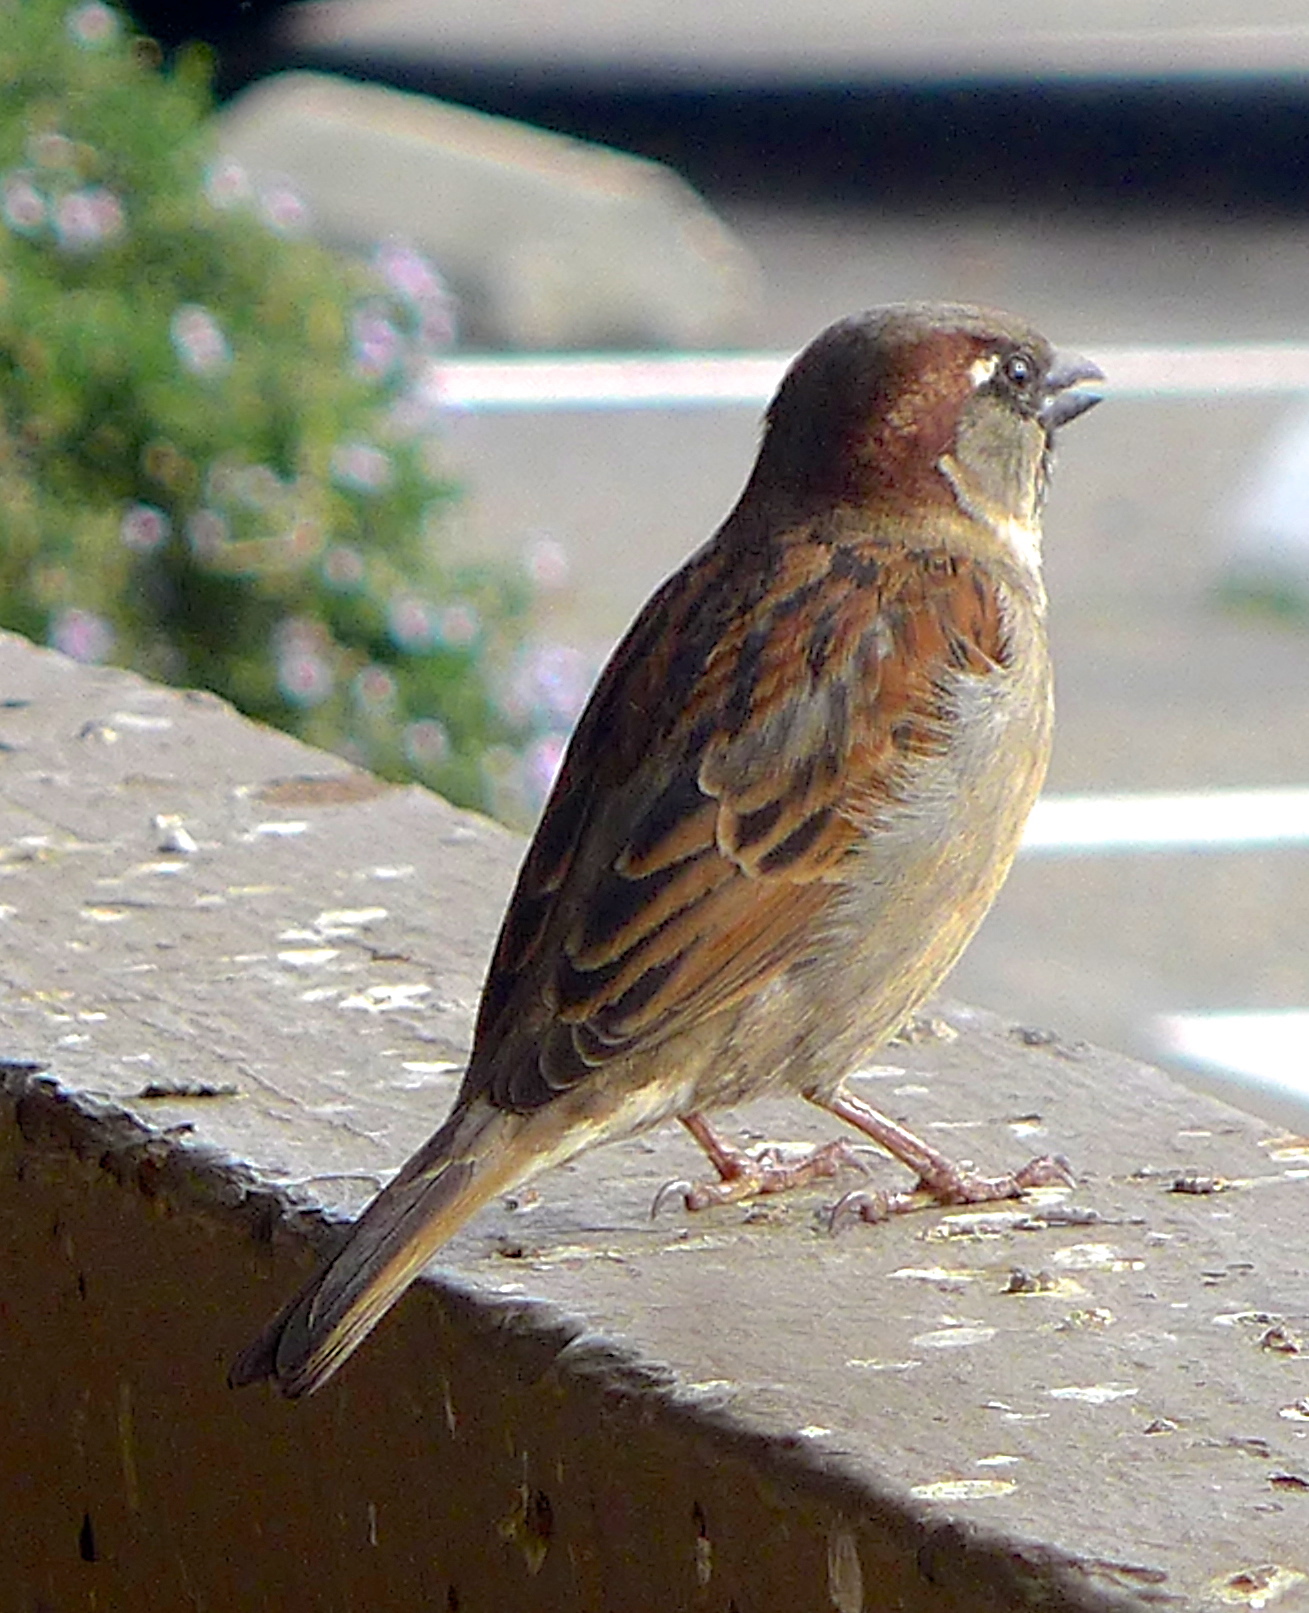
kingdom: Animalia
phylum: Chordata
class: Aves
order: Passeriformes
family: Passeridae
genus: Passer
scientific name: Passer domesticus
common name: House sparrow
